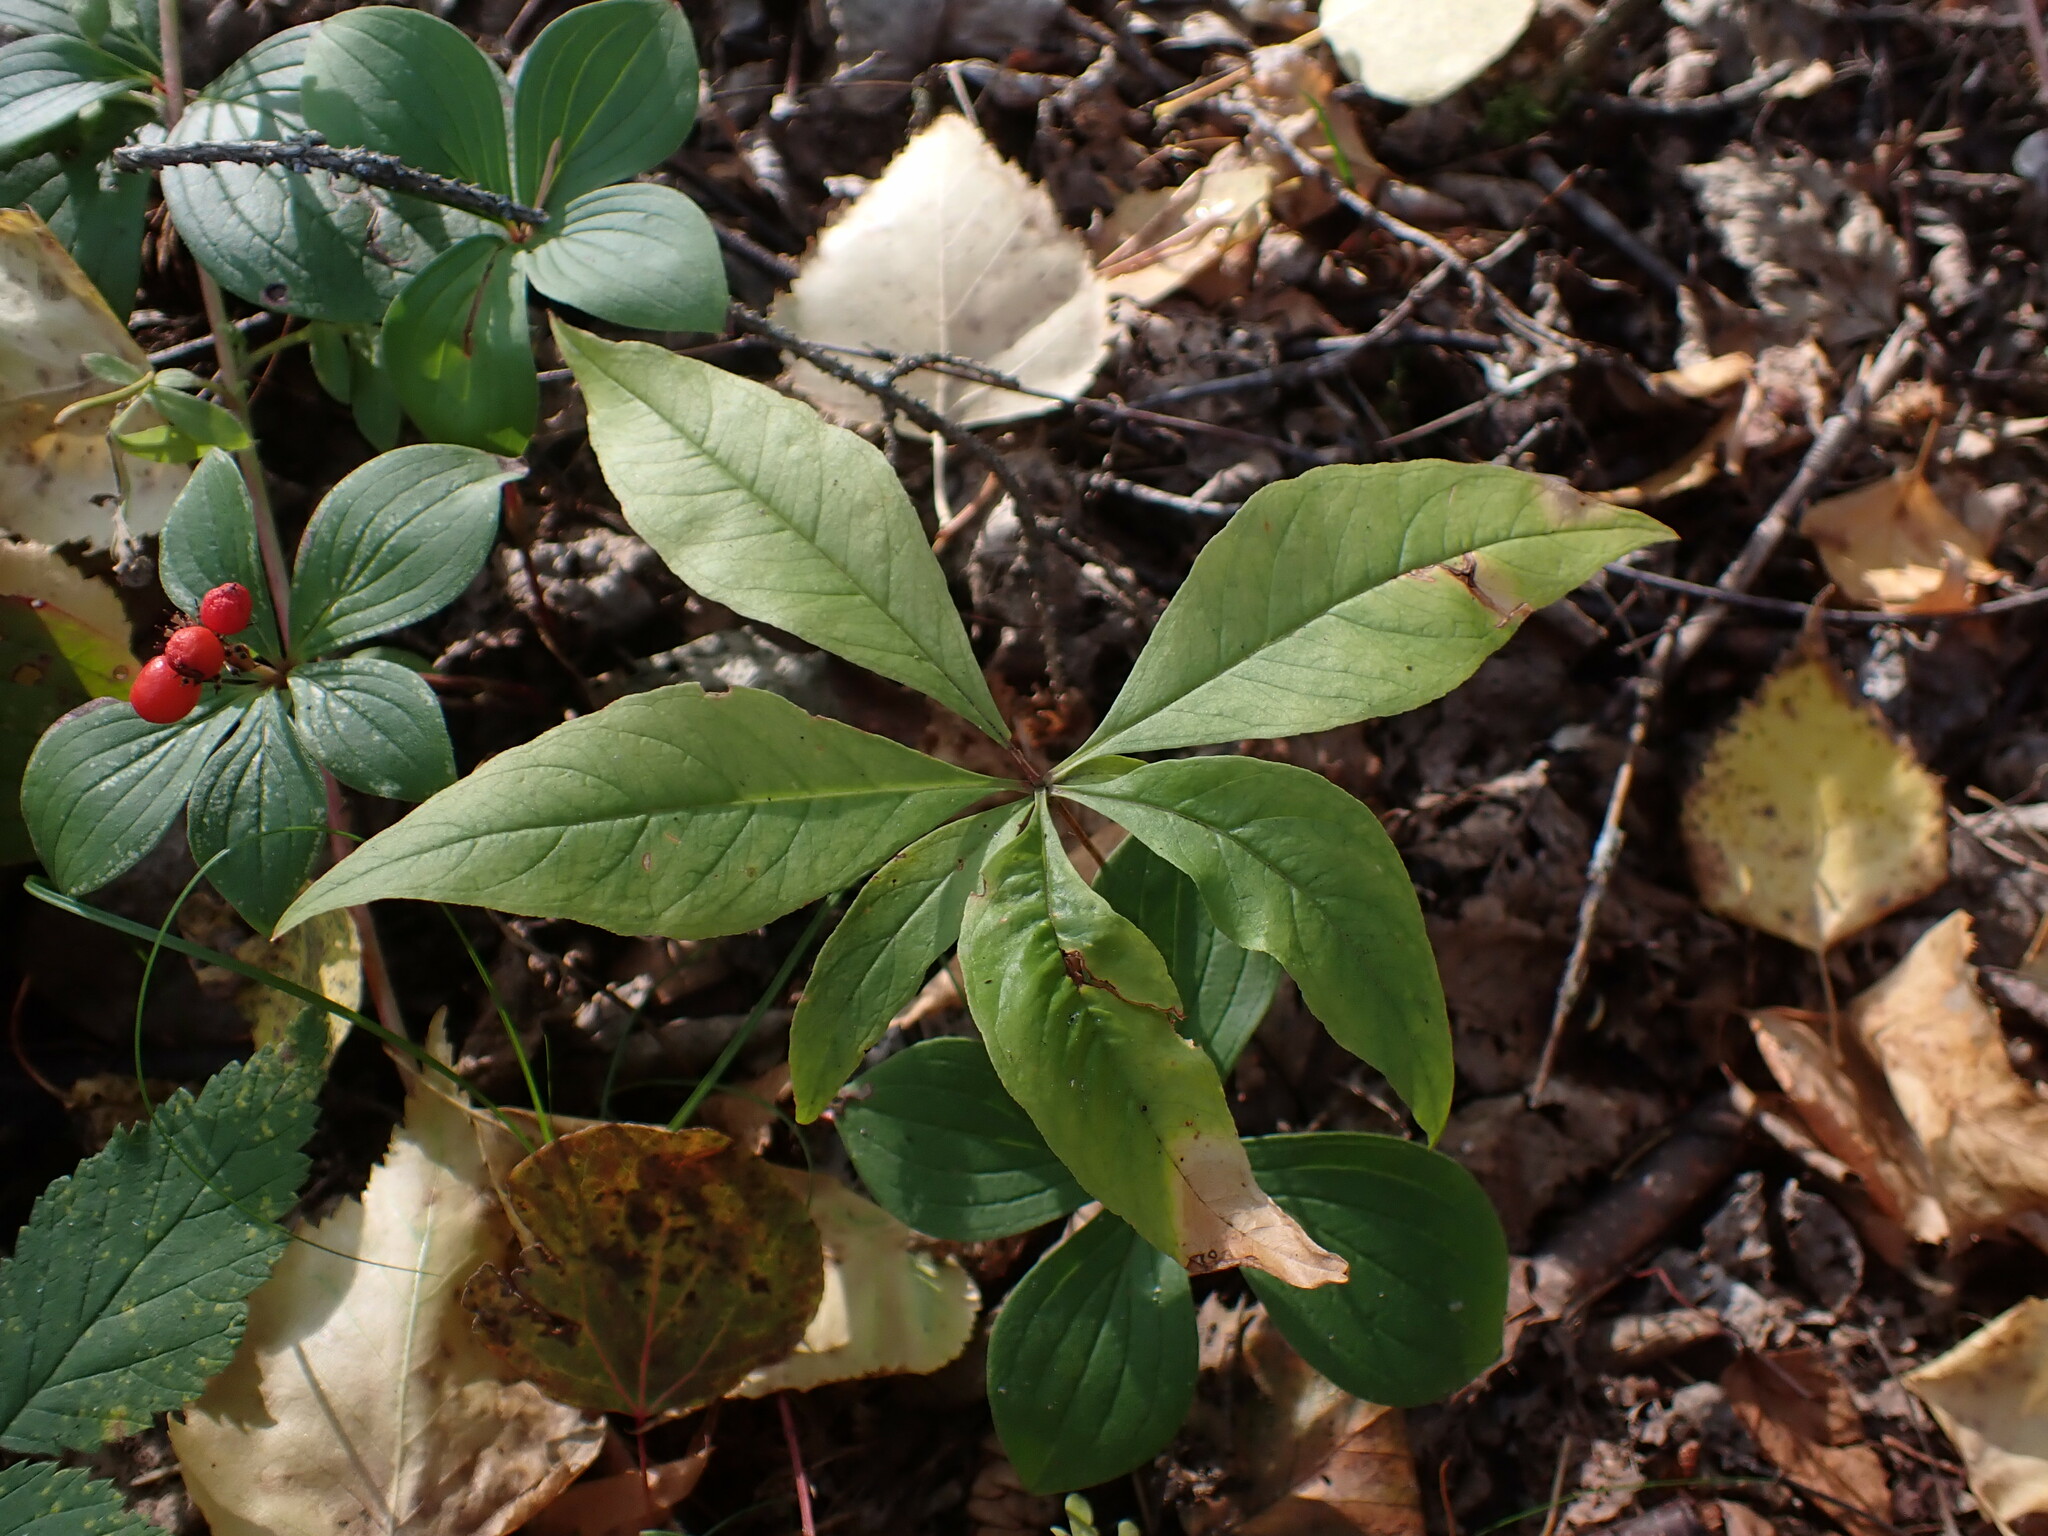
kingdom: Plantae
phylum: Tracheophyta
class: Magnoliopsida
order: Ericales
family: Primulaceae
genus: Lysimachia
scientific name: Lysimachia borealis
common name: American starflower
